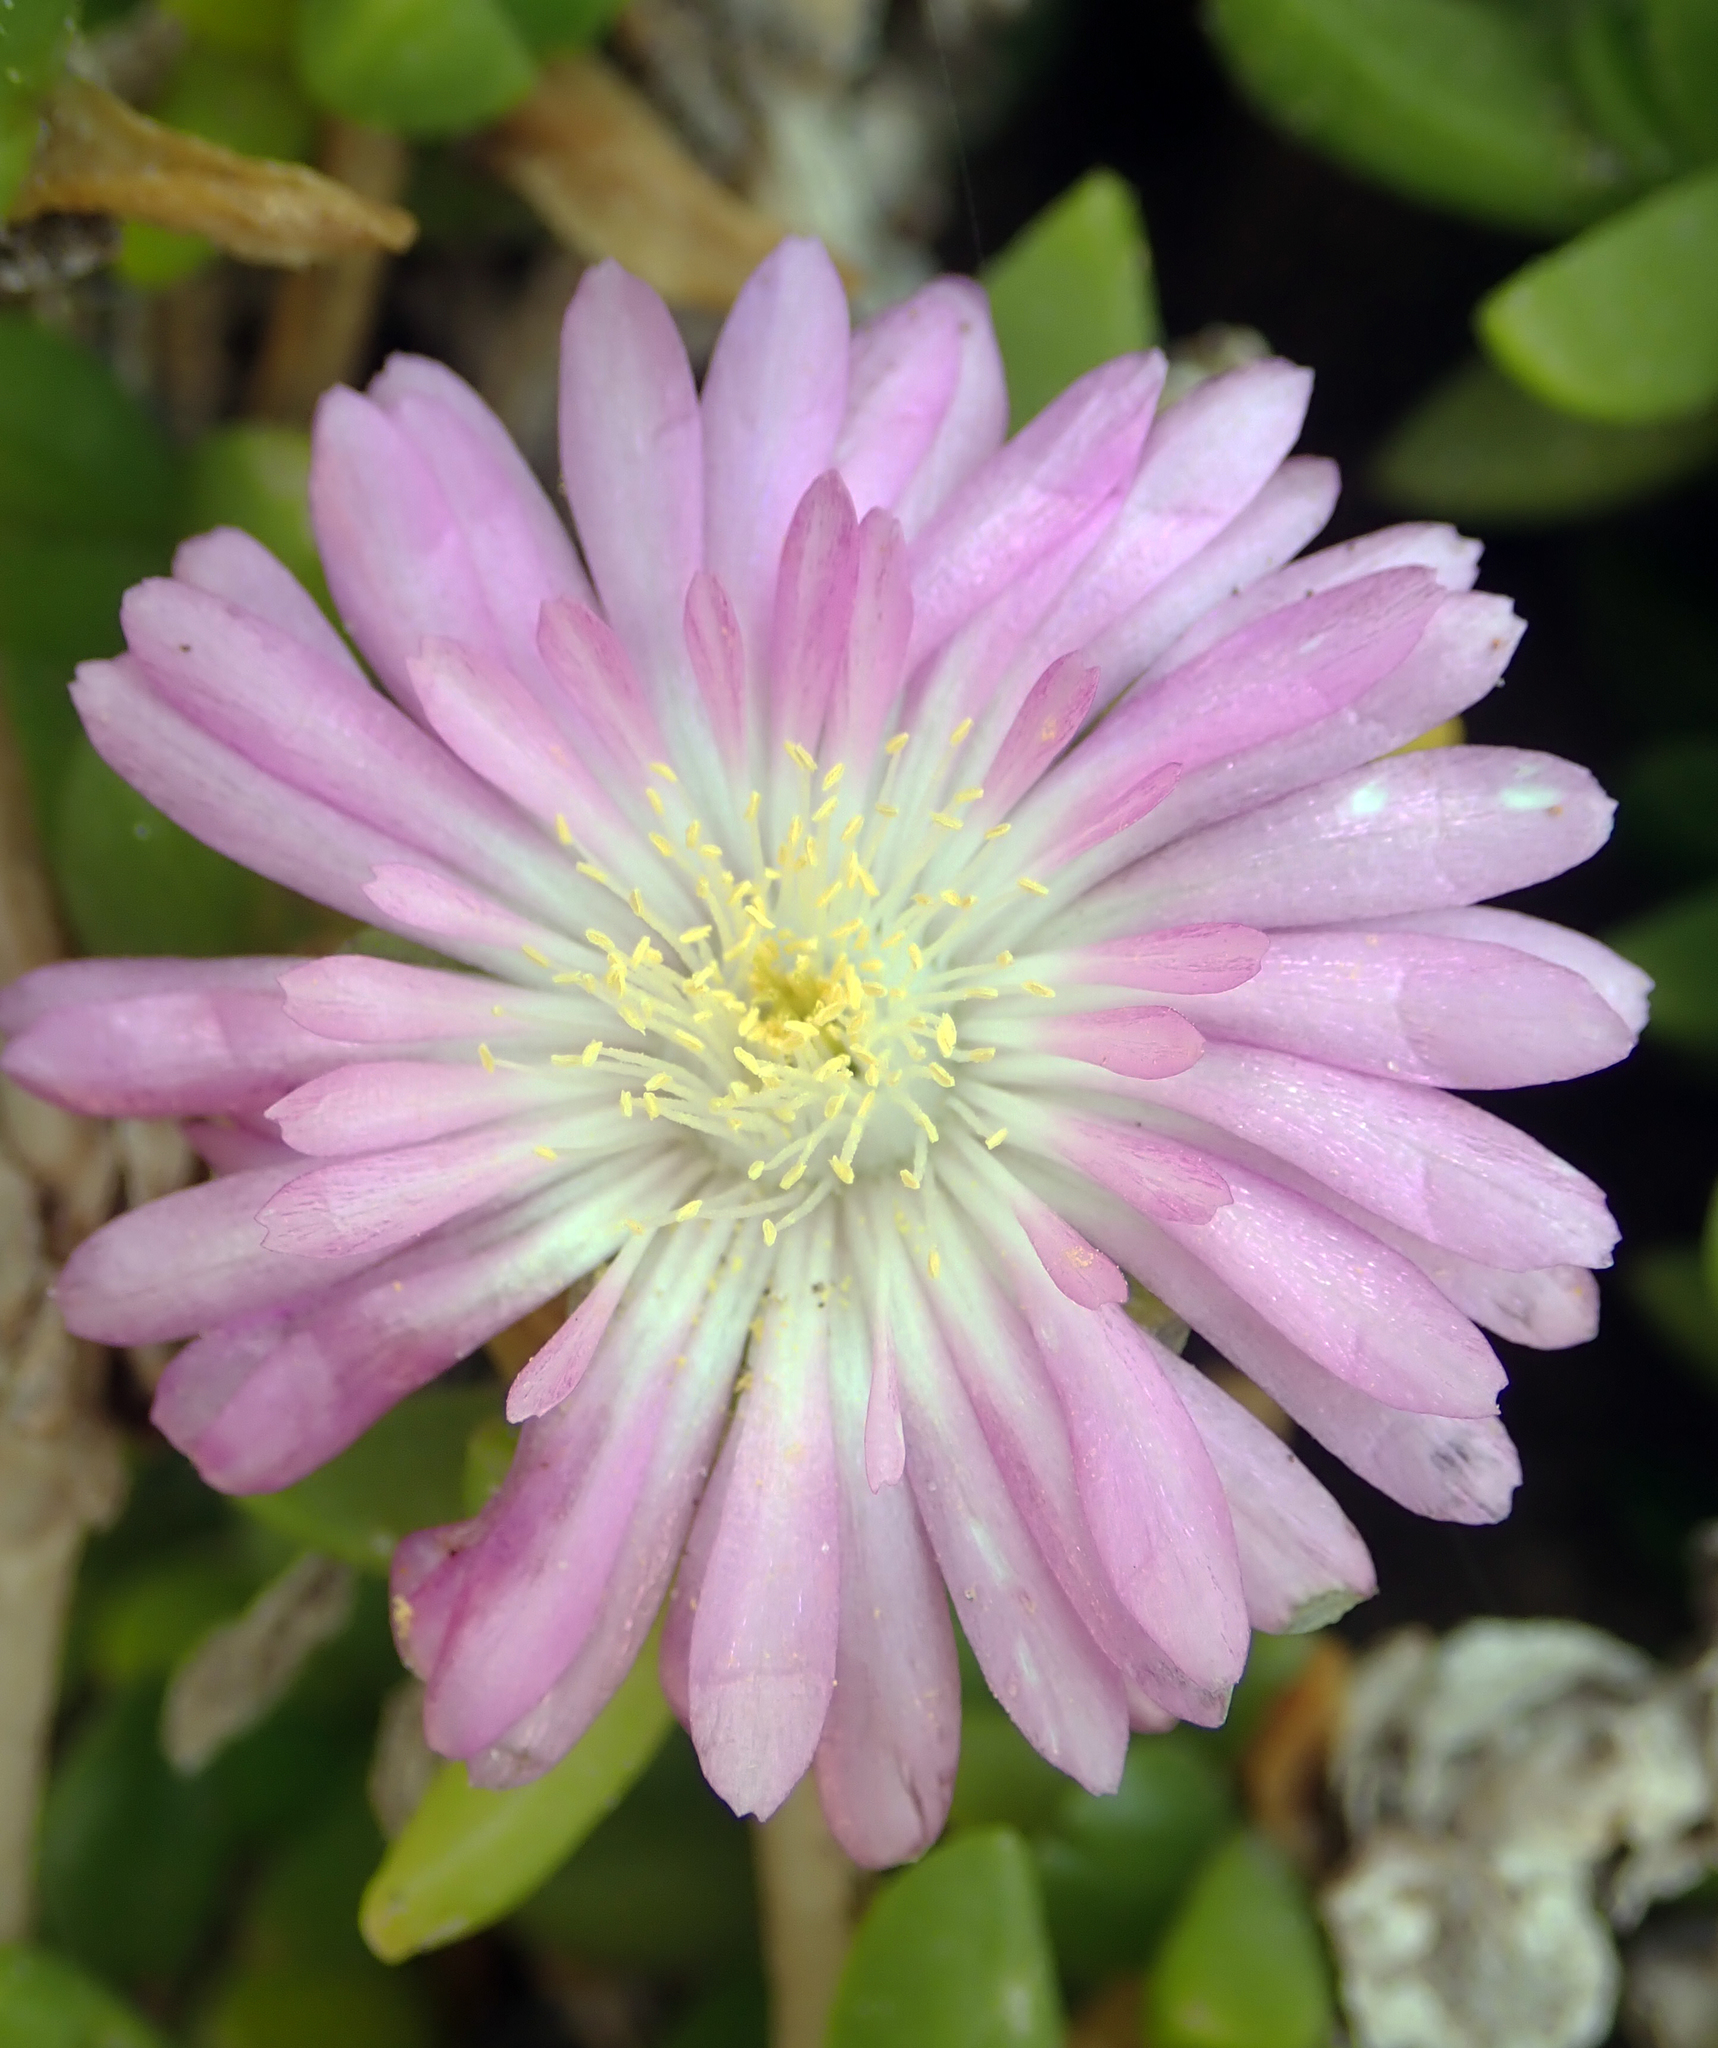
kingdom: Plantae
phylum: Tracheophyta
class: Magnoliopsida
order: Caryophyllales
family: Aizoaceae
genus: Disphyma
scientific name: Disphyma papillatum
